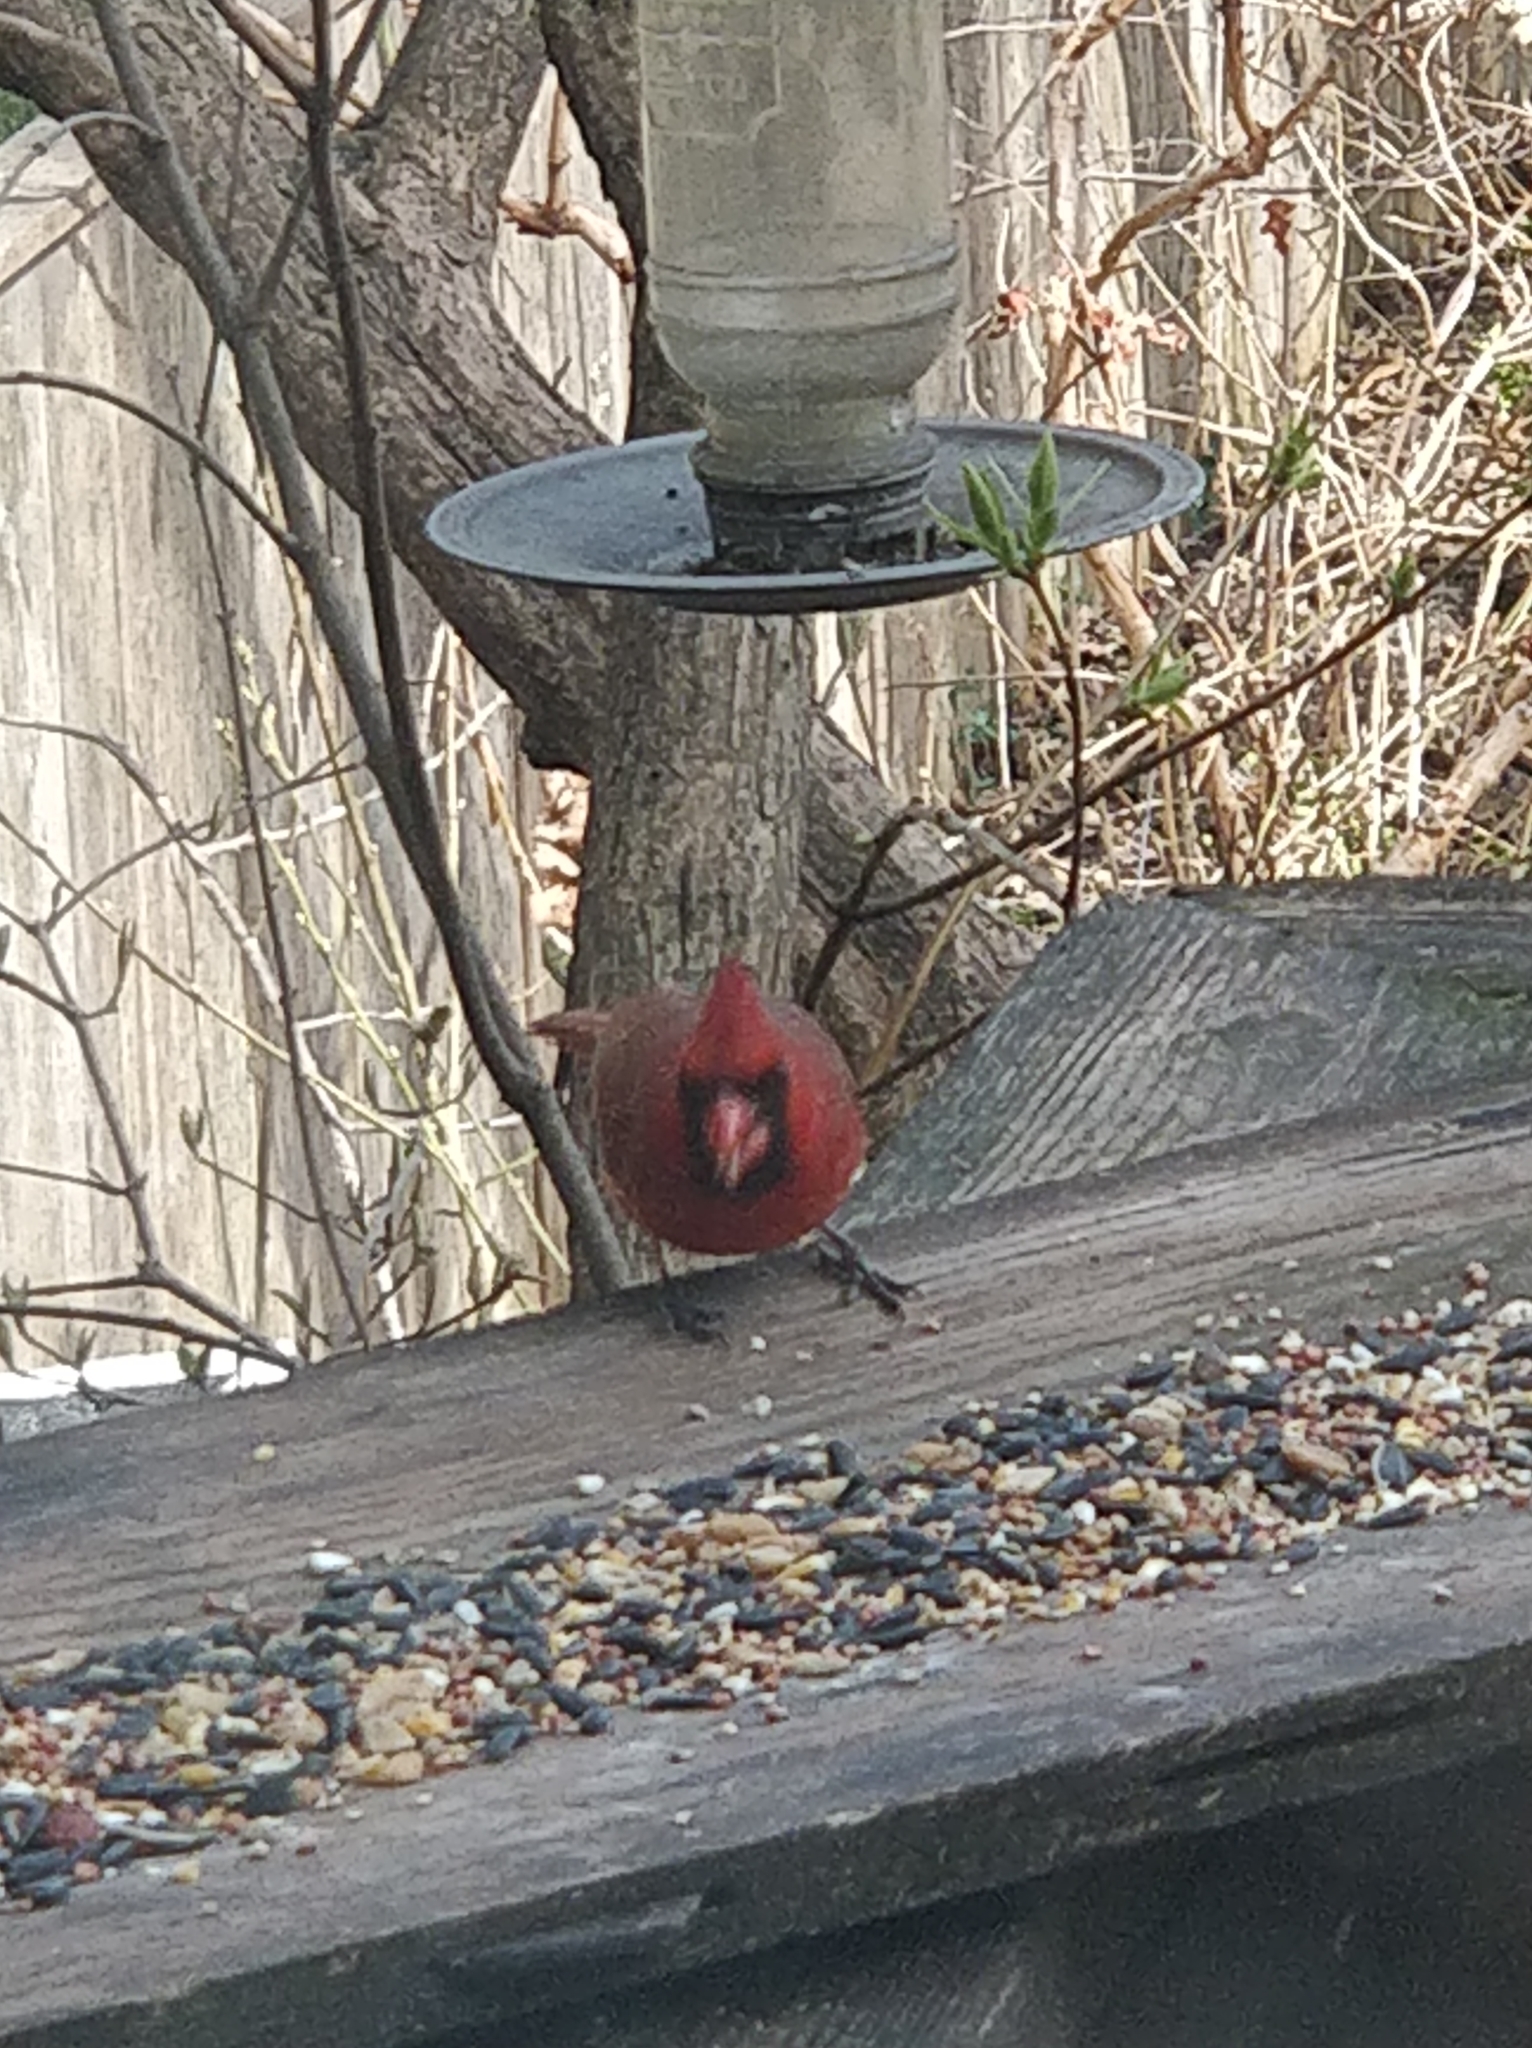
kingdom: Animalia
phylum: Chordata
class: Aves
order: Passeriformes
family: Cardinalidae
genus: Cardinalis
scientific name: Cardinalis cardinalis
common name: Northern cardinal
